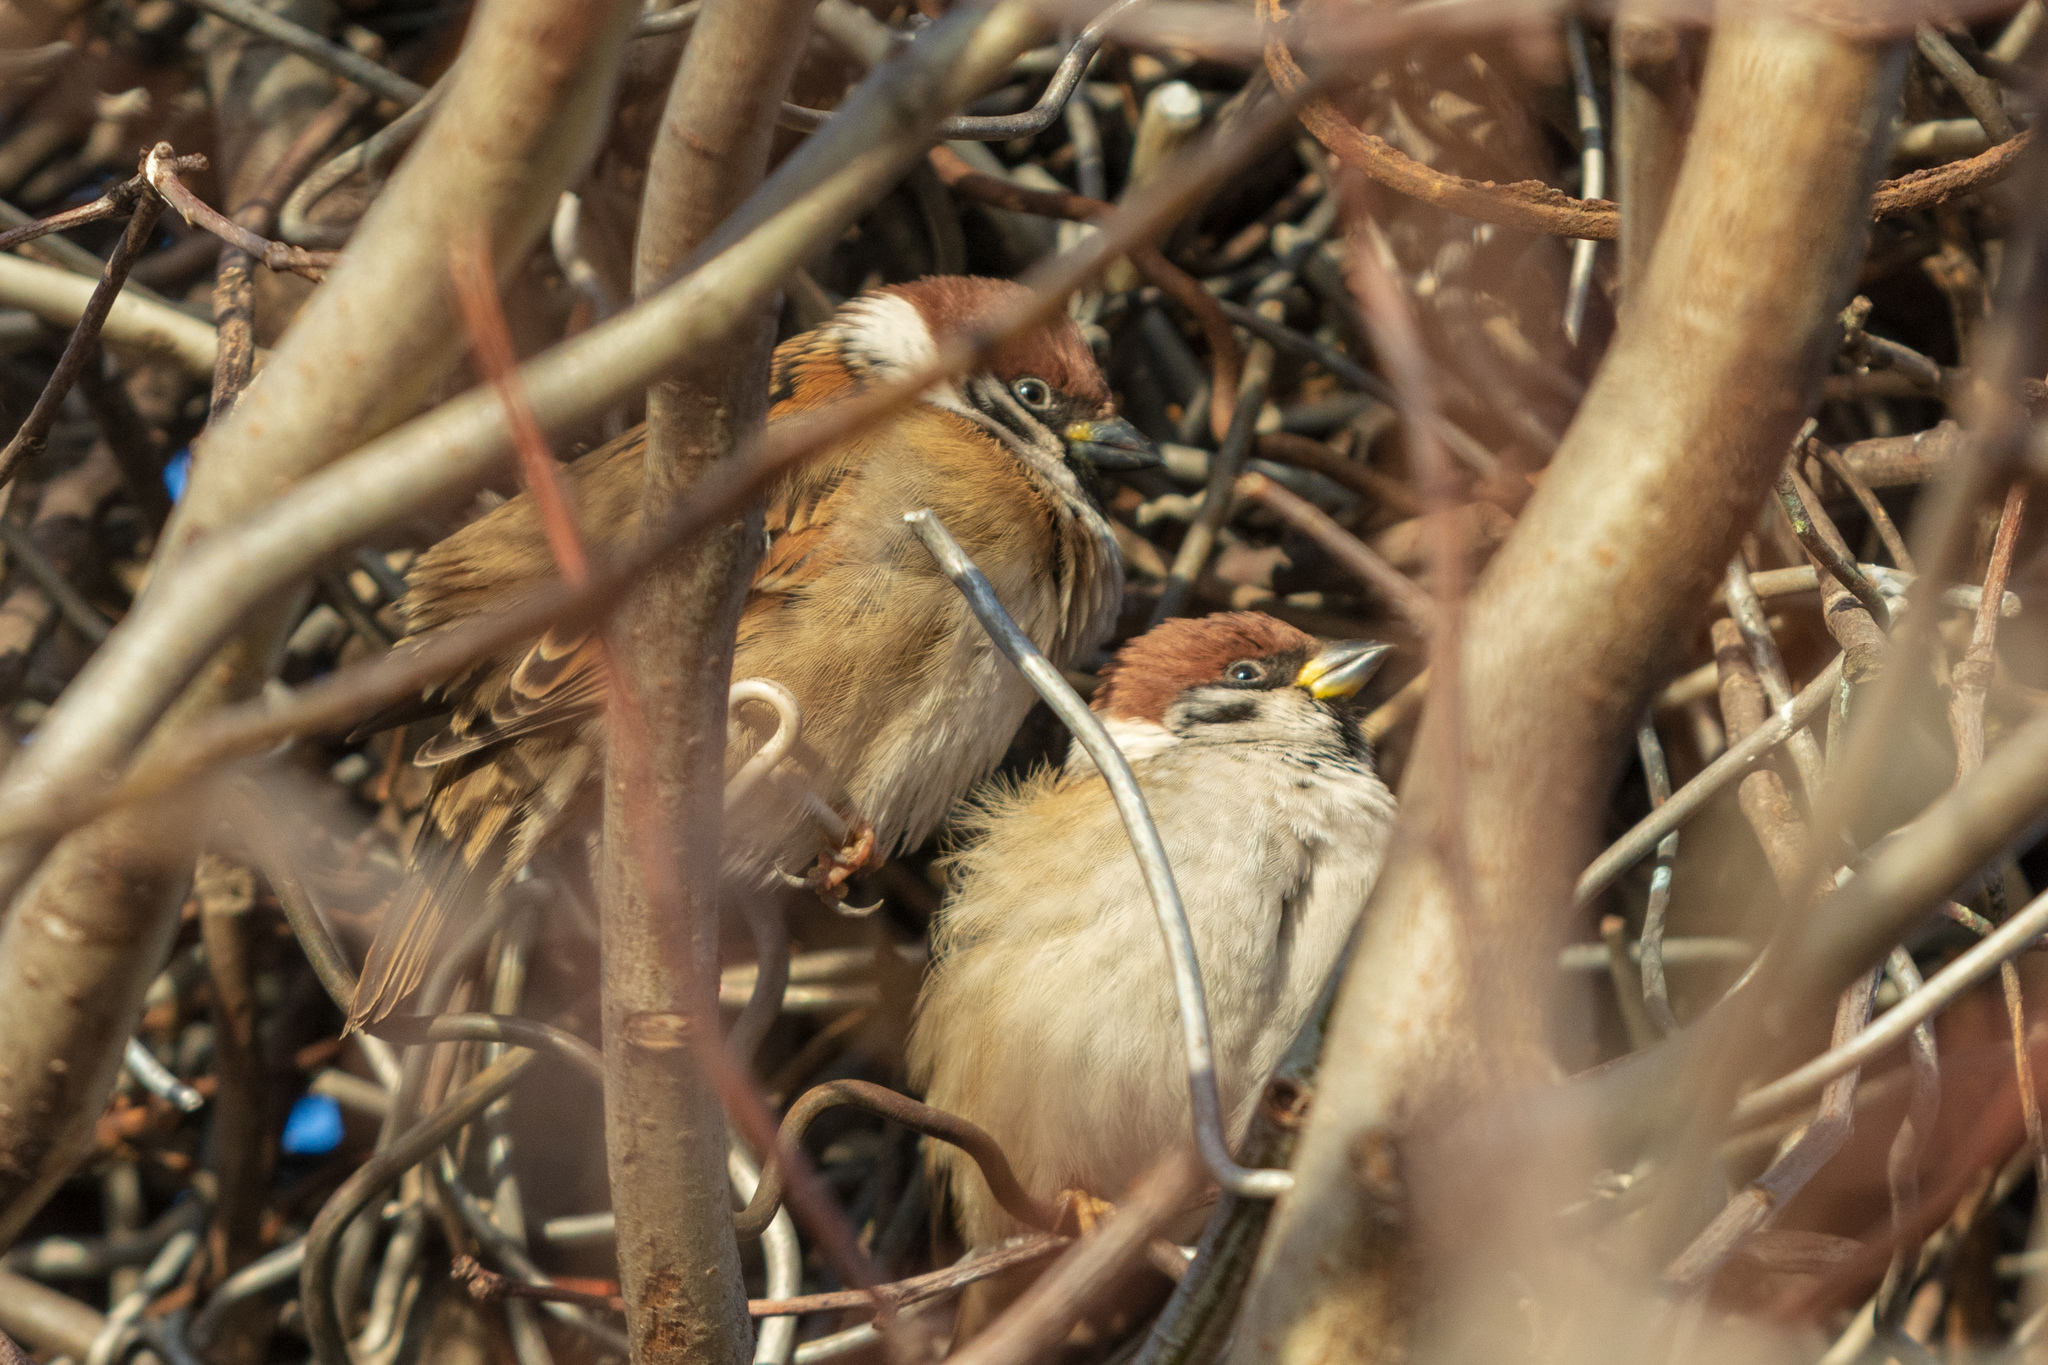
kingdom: Animalia
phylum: Chordata
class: Aves
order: Passeriformes
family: Passeridae
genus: Passer
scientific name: Passer montanus
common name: Eurasian tree sparrow
